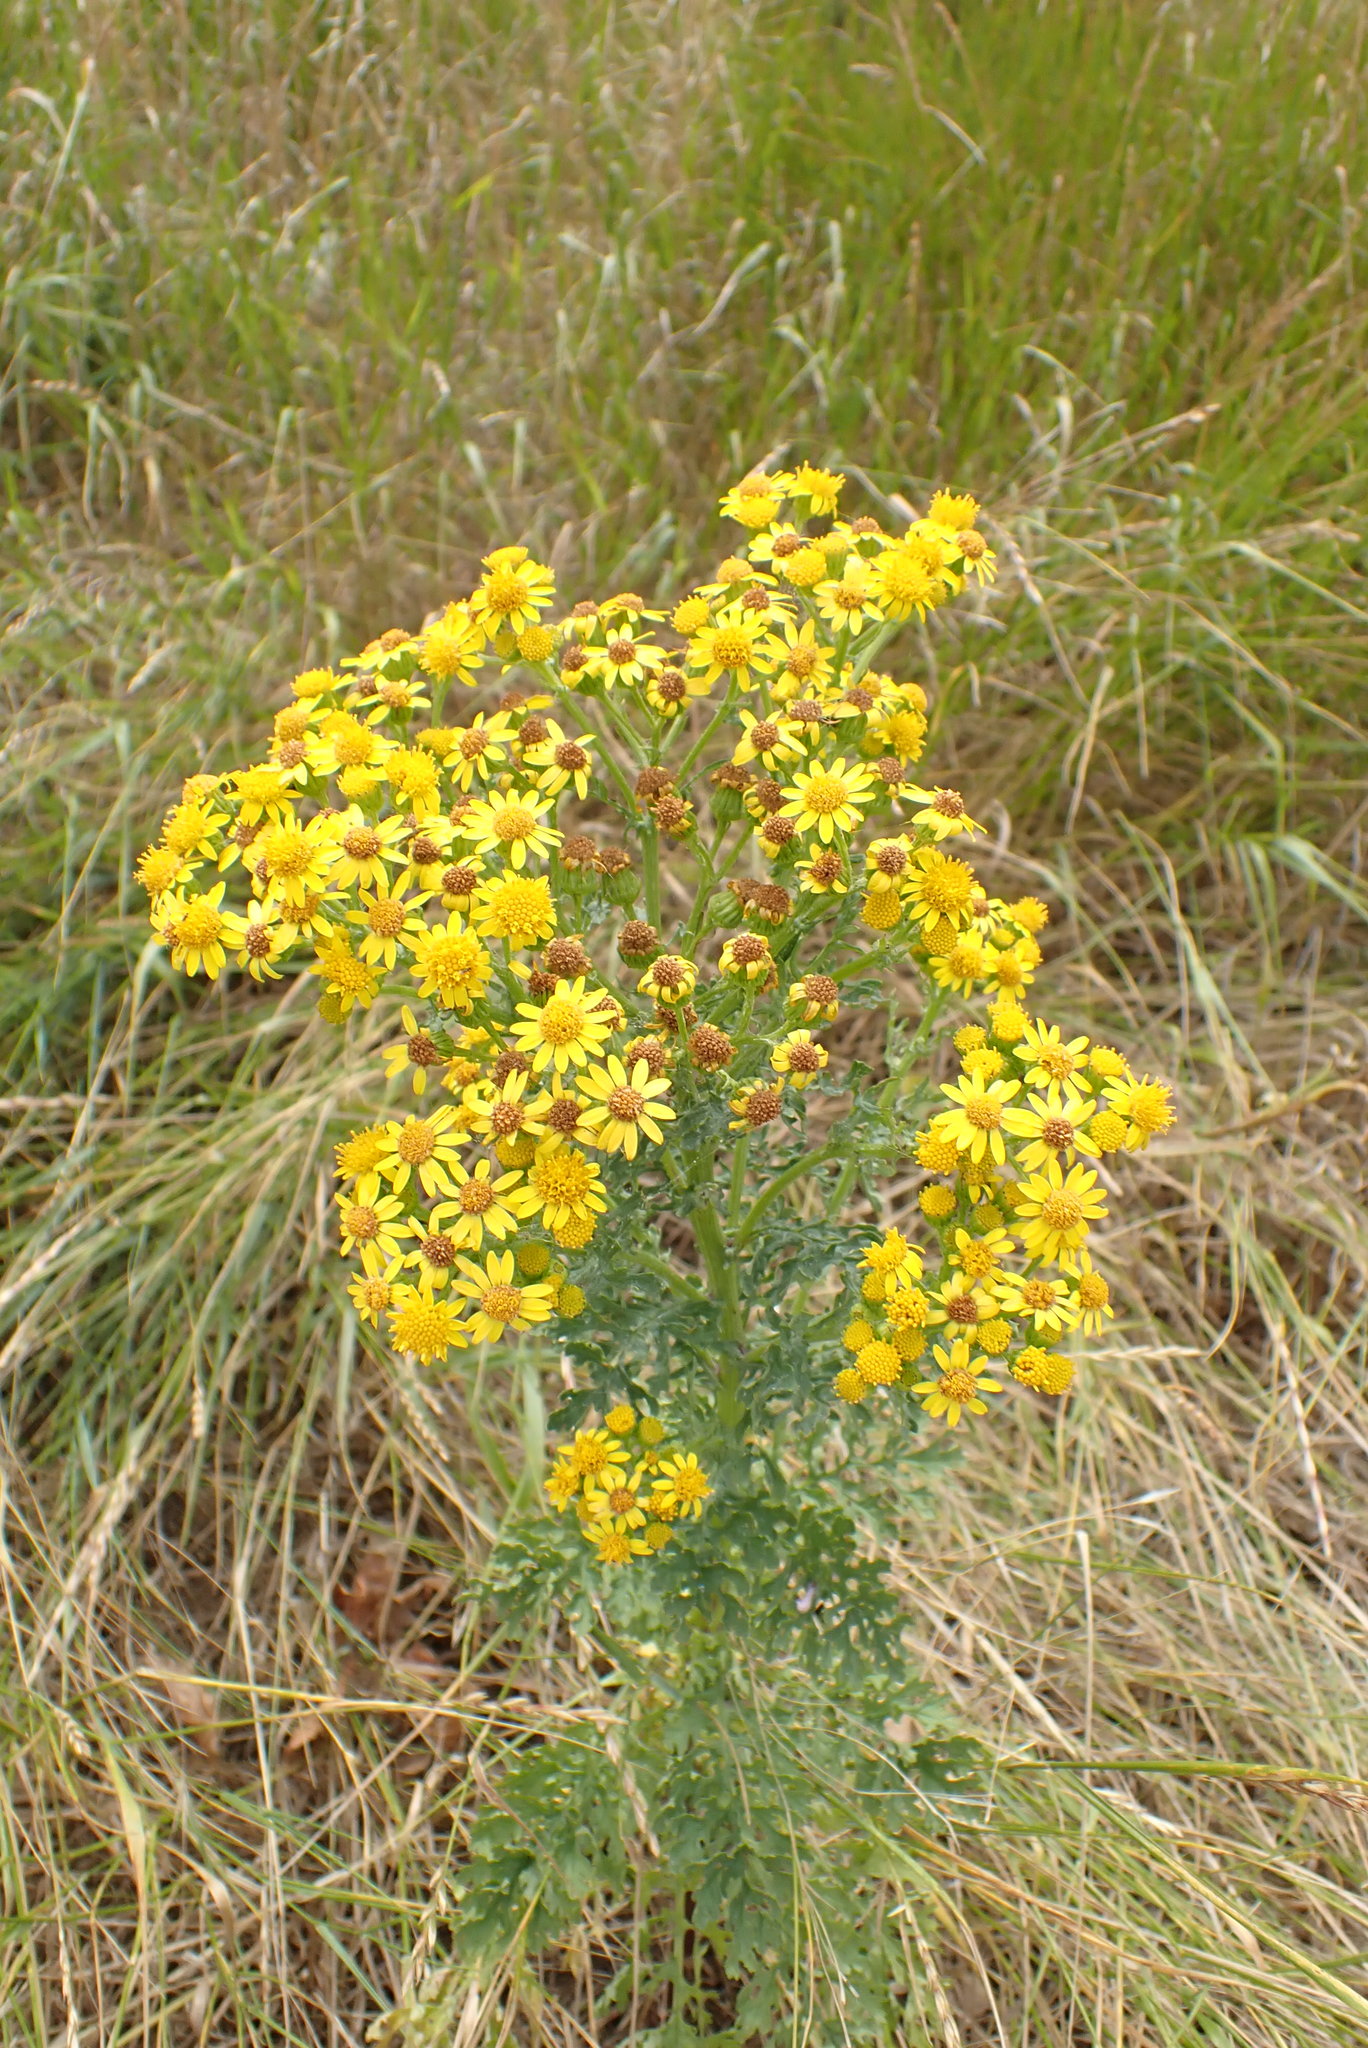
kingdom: Plantae
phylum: Tracheophyta
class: Magnoliopsida
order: Asterales
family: Asteraceae
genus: Jacobaea
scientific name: Jacobaea vulgaris
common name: Stinking willie
